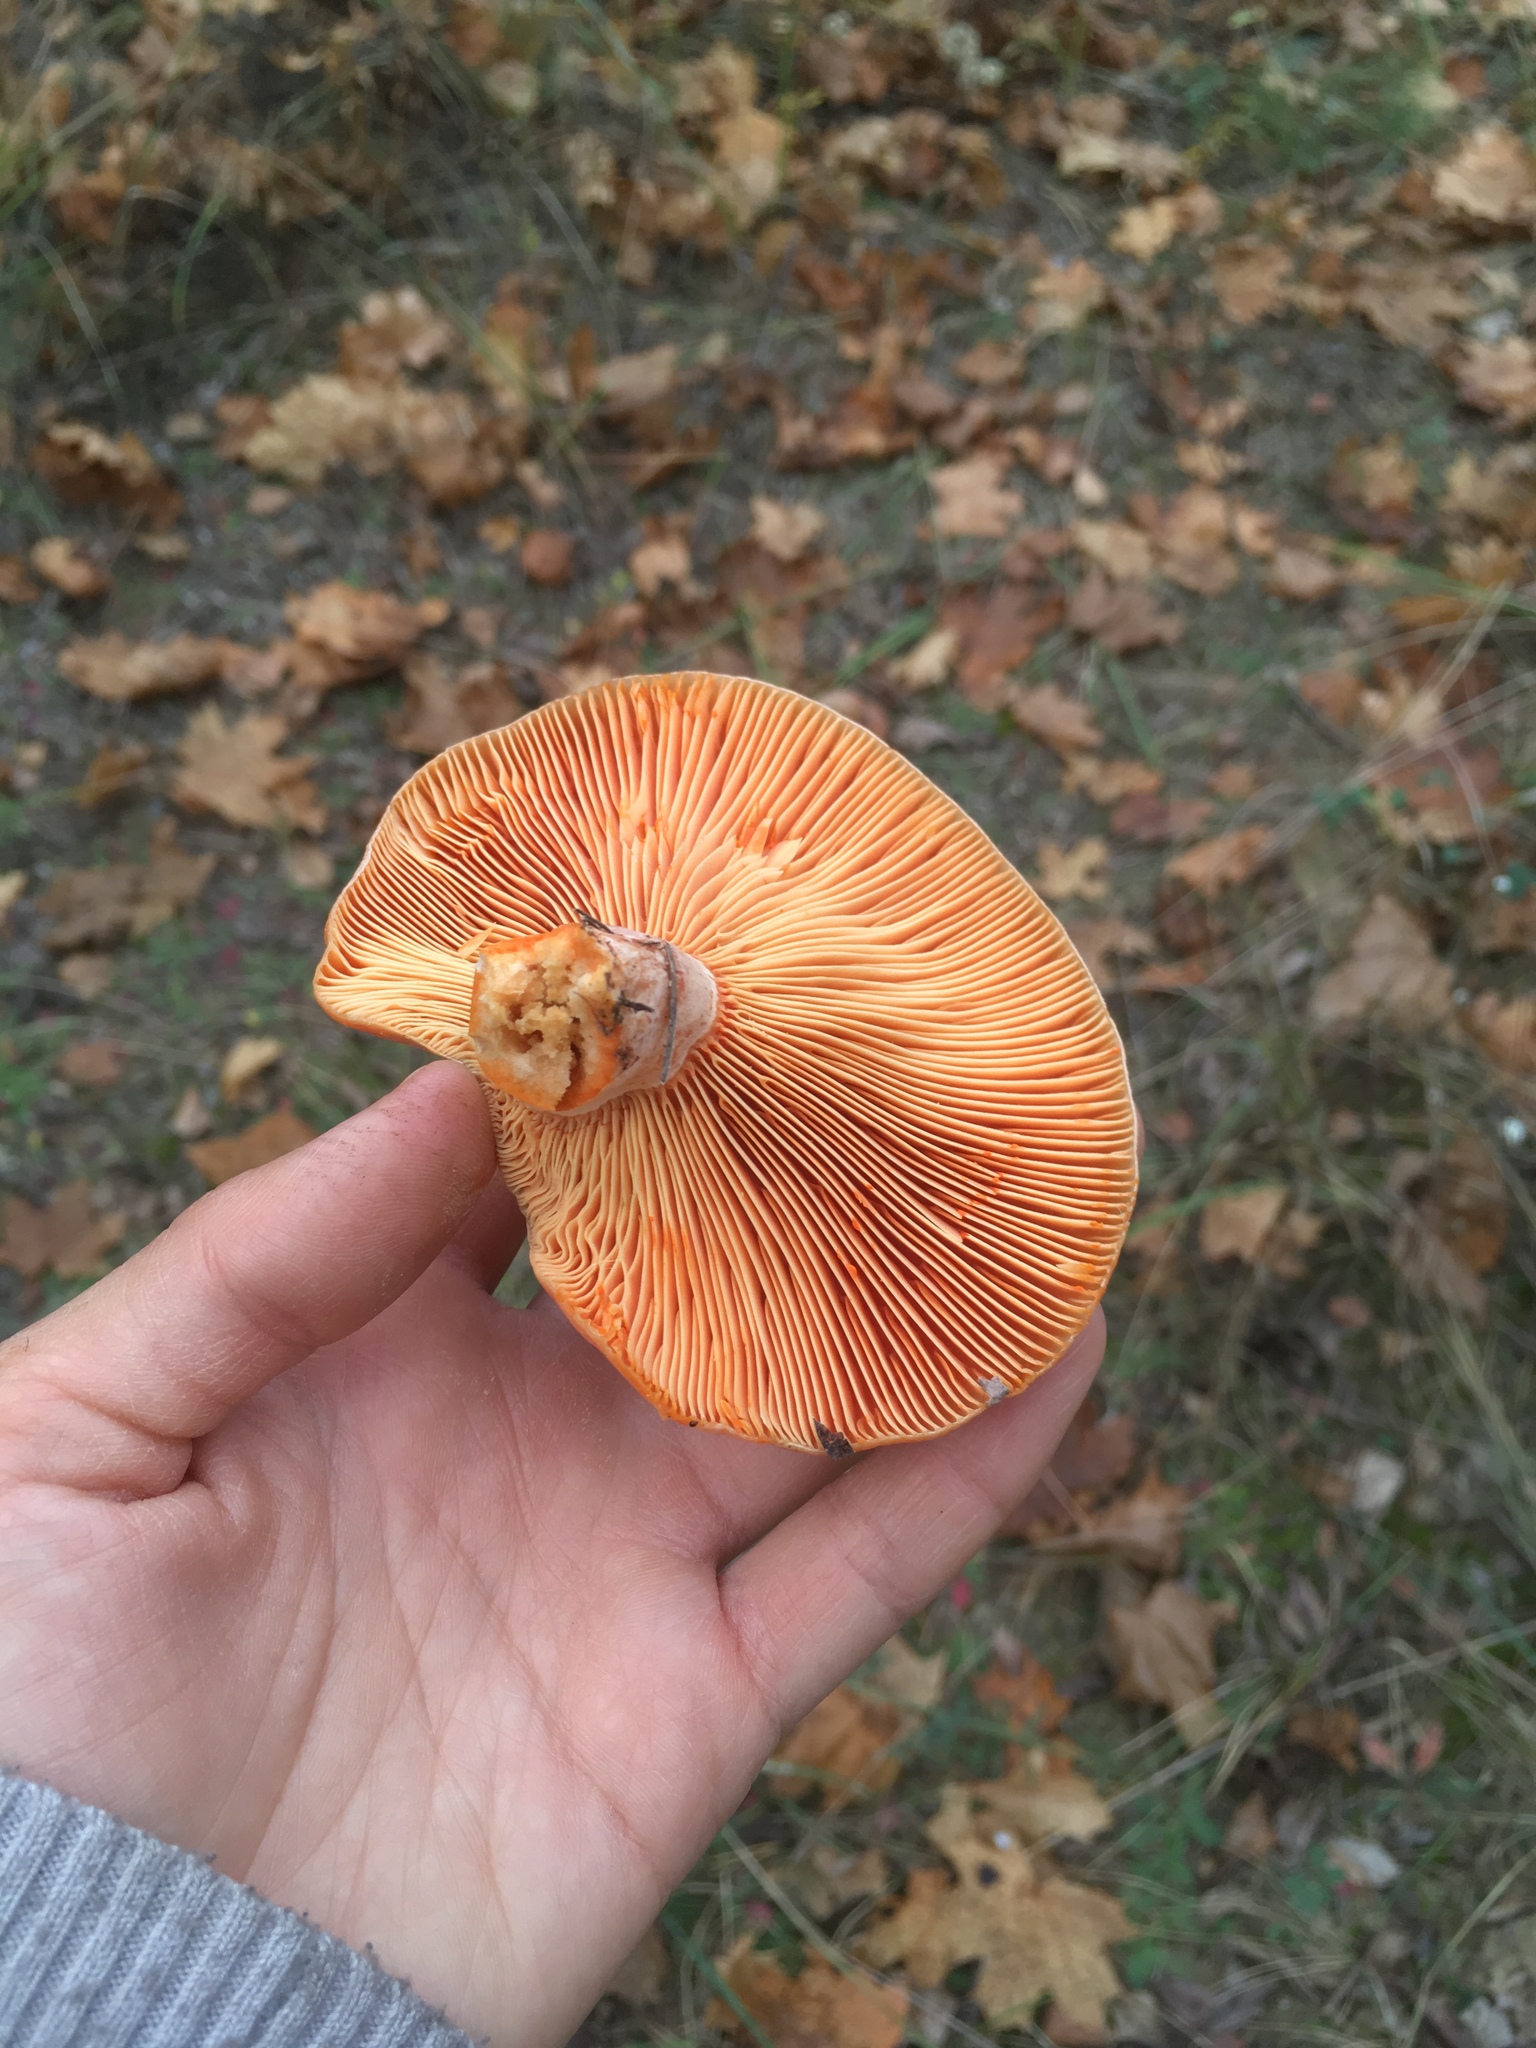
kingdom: Fungi
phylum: Basidiomycota
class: Agaricomycetes
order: Russulales
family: Russulaceae
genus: Lactarius
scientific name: Lactarius deliciosus
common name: Saffron milk-cap
